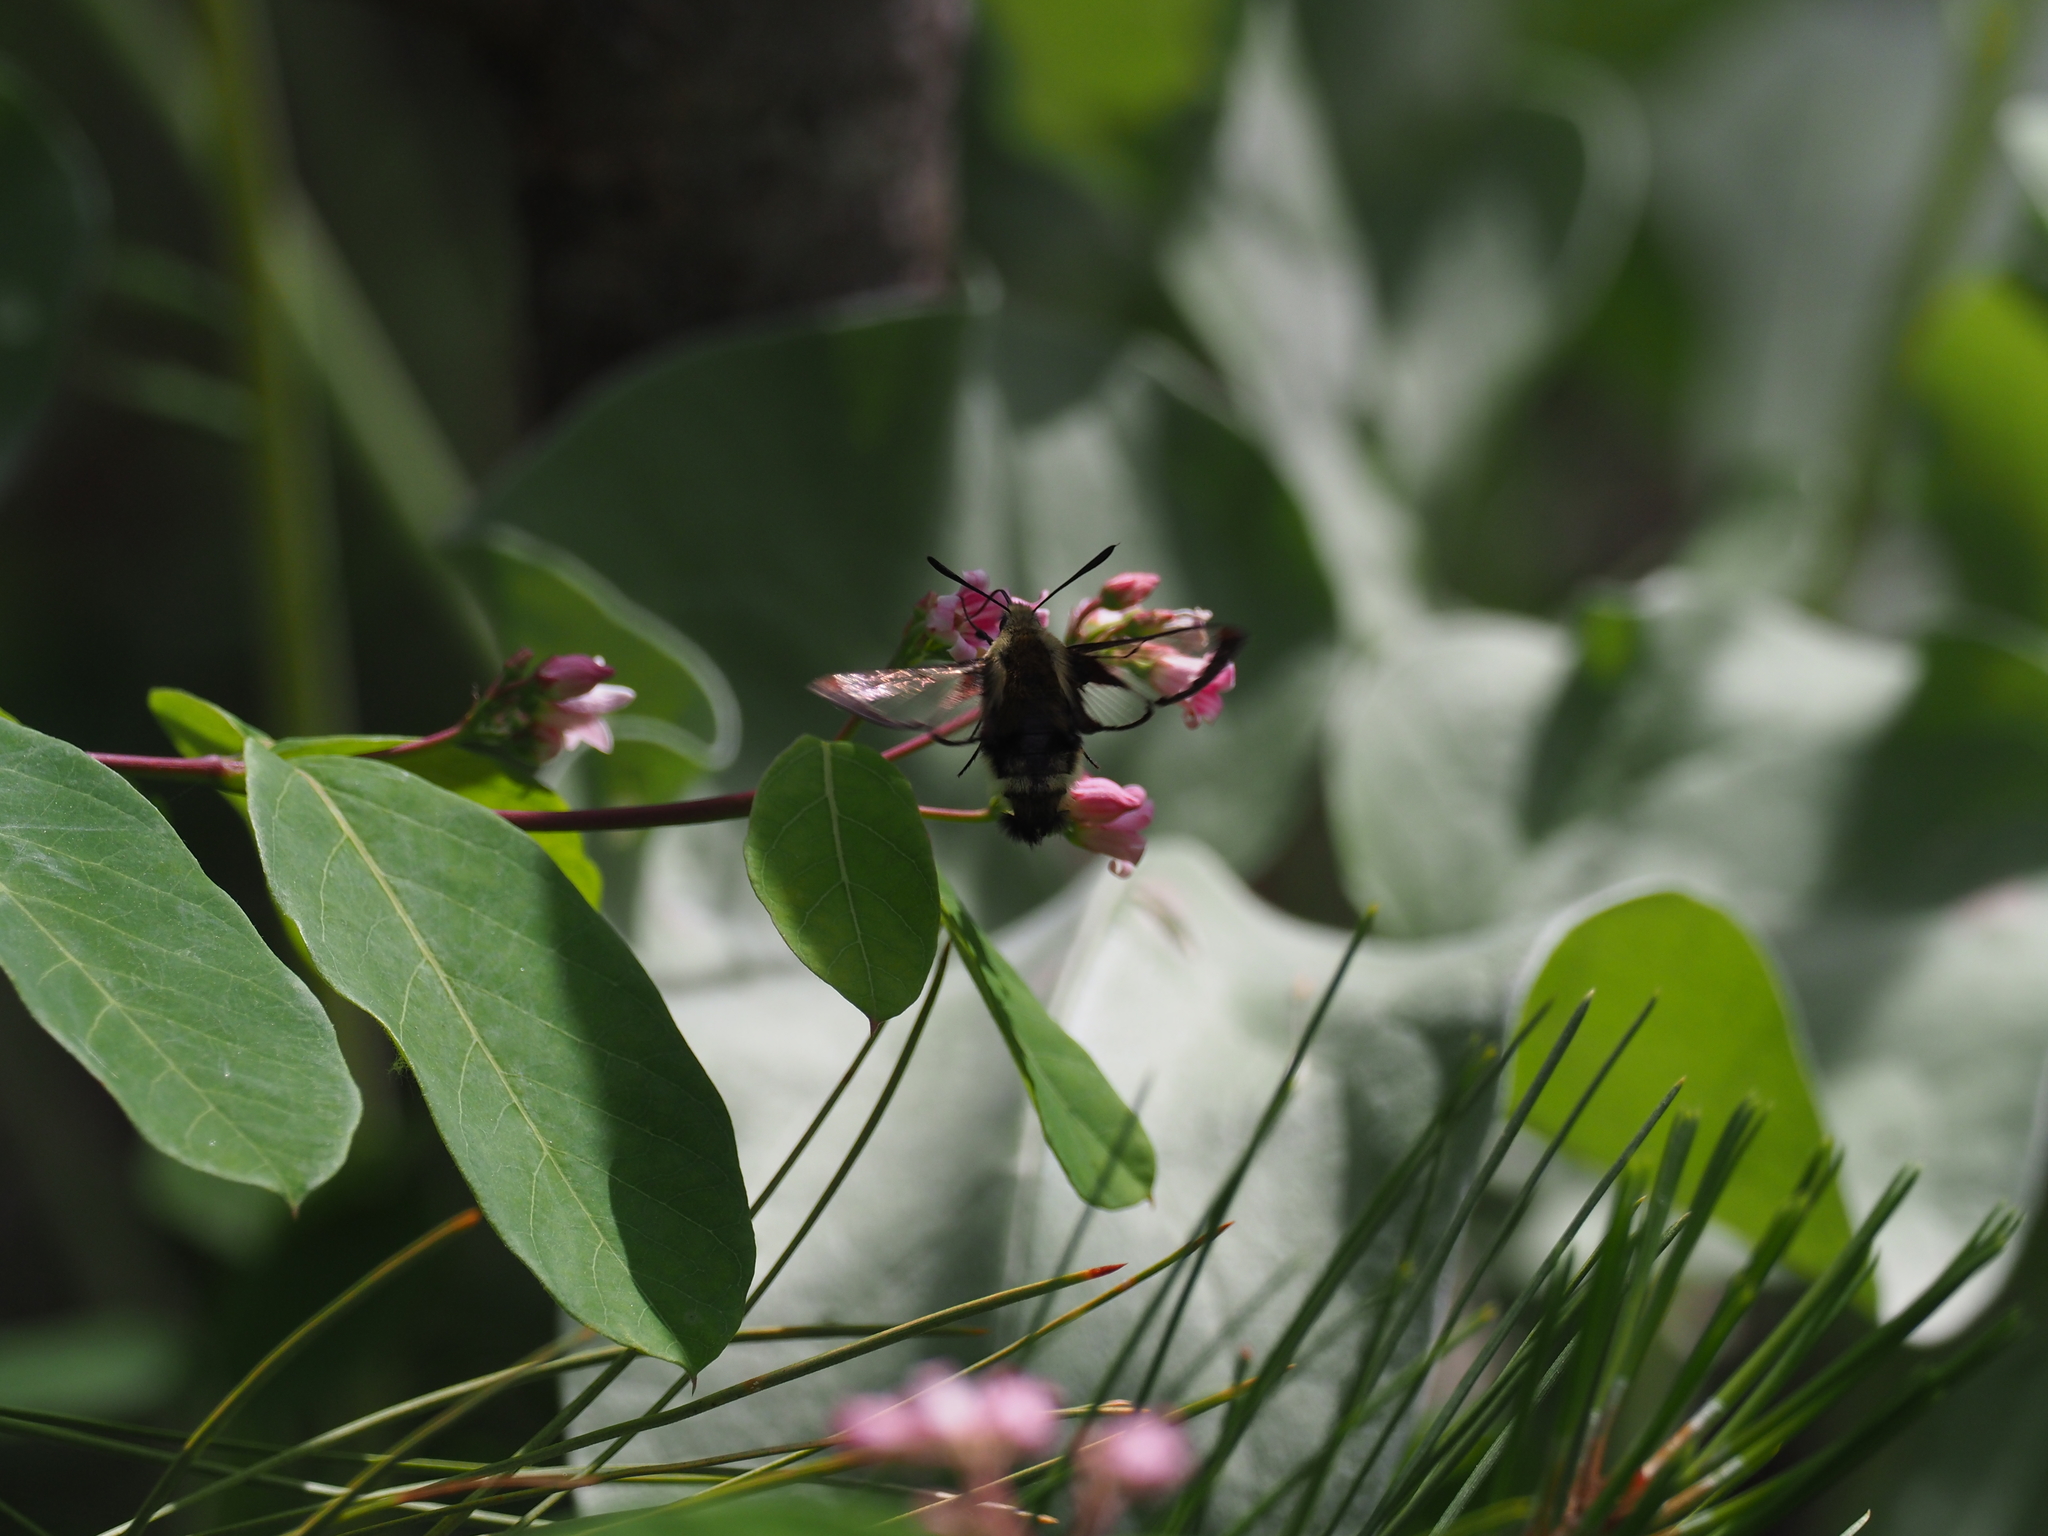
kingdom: Animalia
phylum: Arthropoda
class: Insecta
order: Lepidoptera
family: Sphingidae
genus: Hemaris
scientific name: Hemaris thetis
